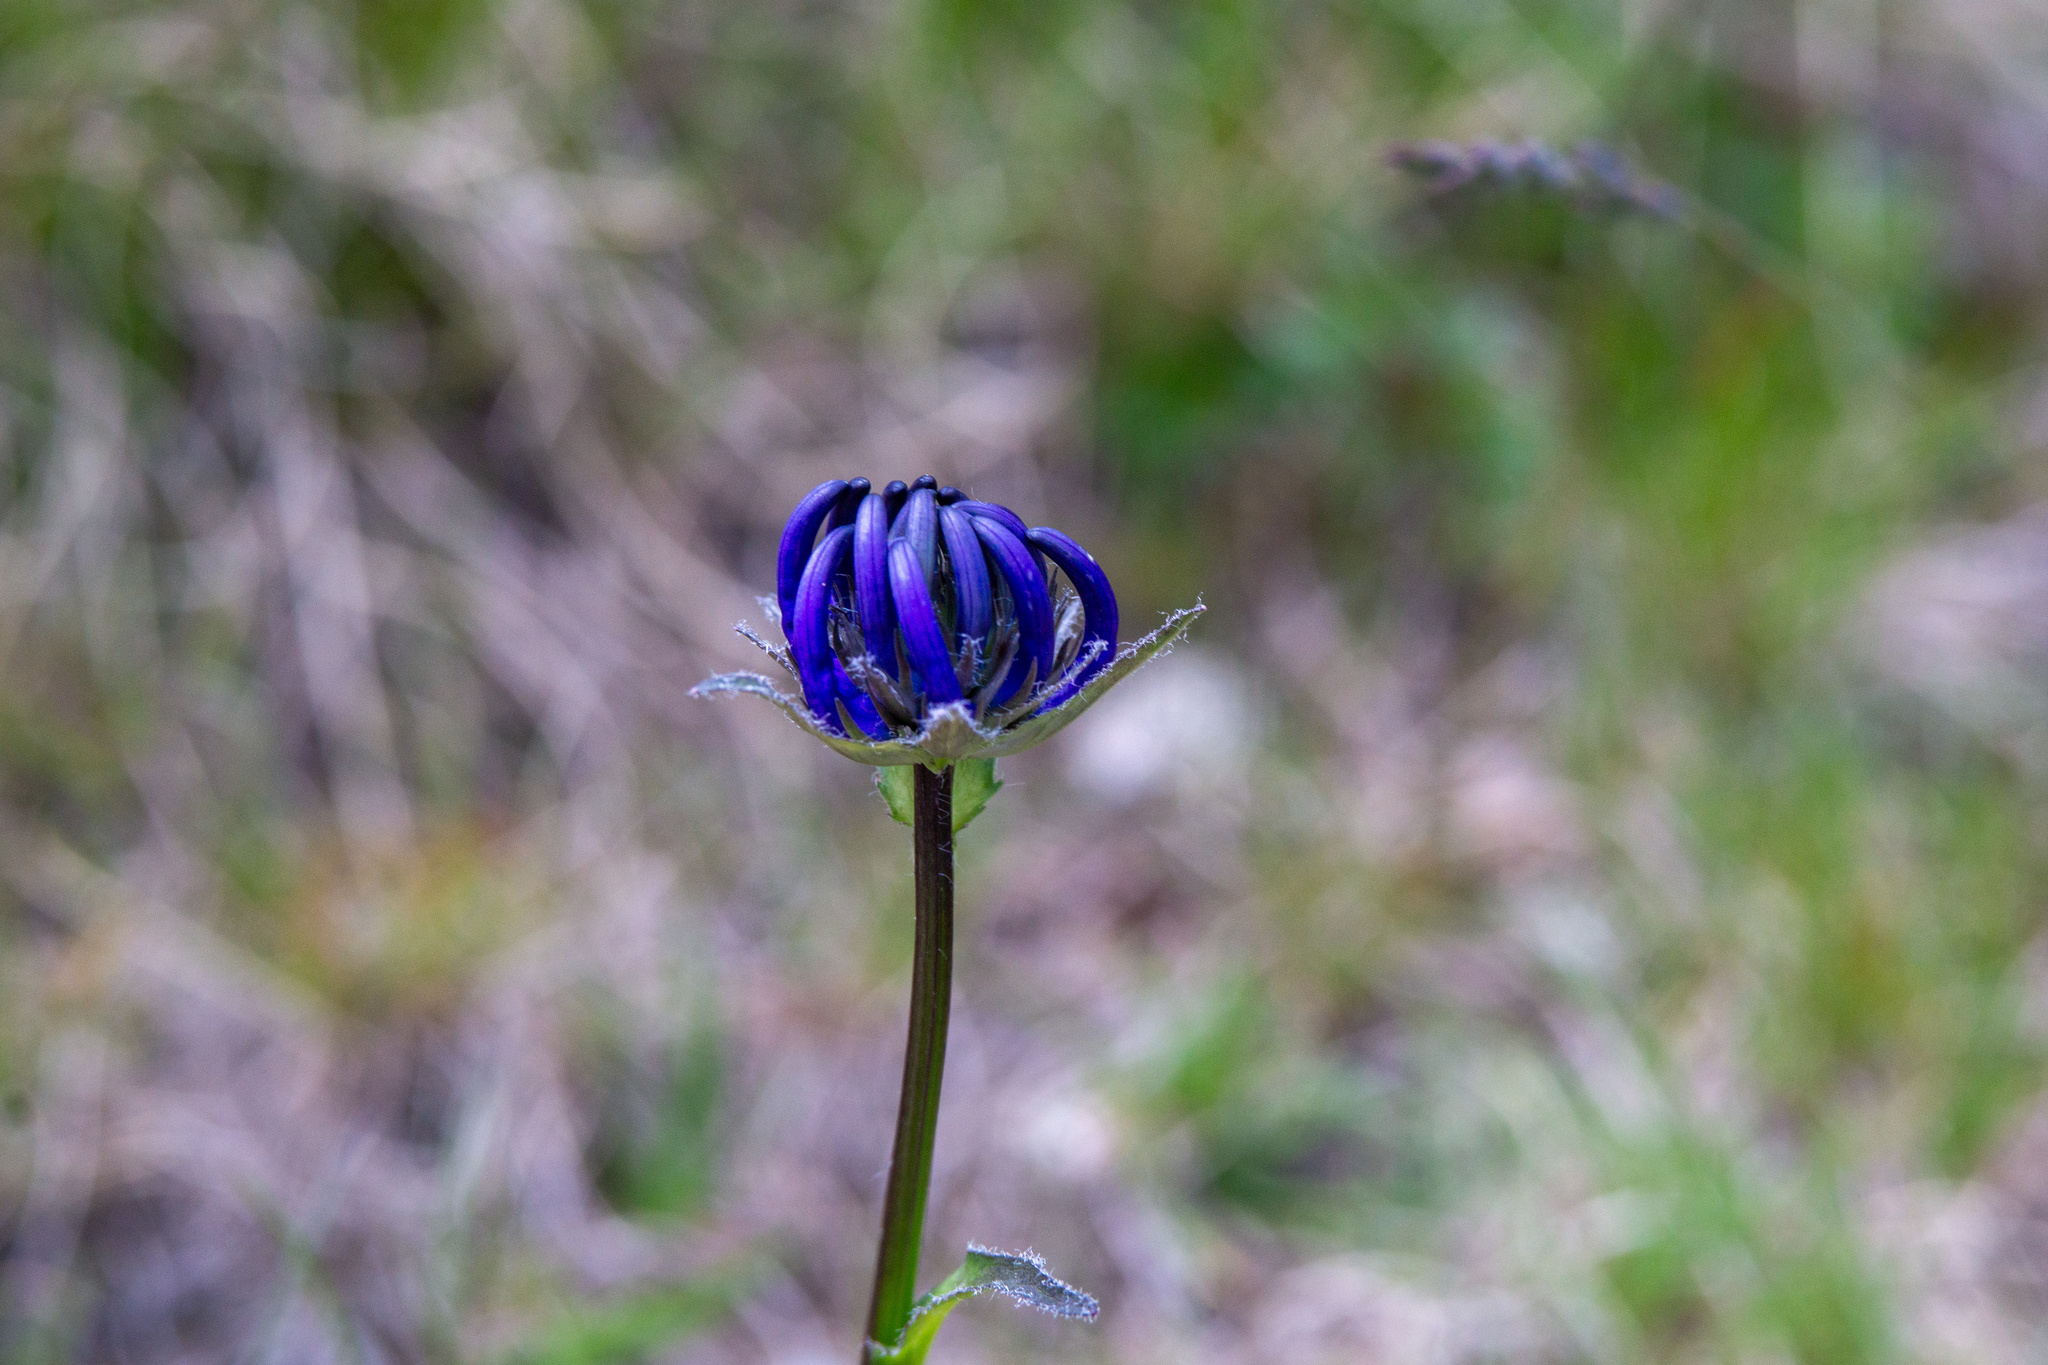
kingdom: Plantae
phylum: Tracheophyta
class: Magnoliopsida
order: Asterales
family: Campanulaceae
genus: Phyteuma
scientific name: Phyteuma orbiculare
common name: Round-headed rampion
